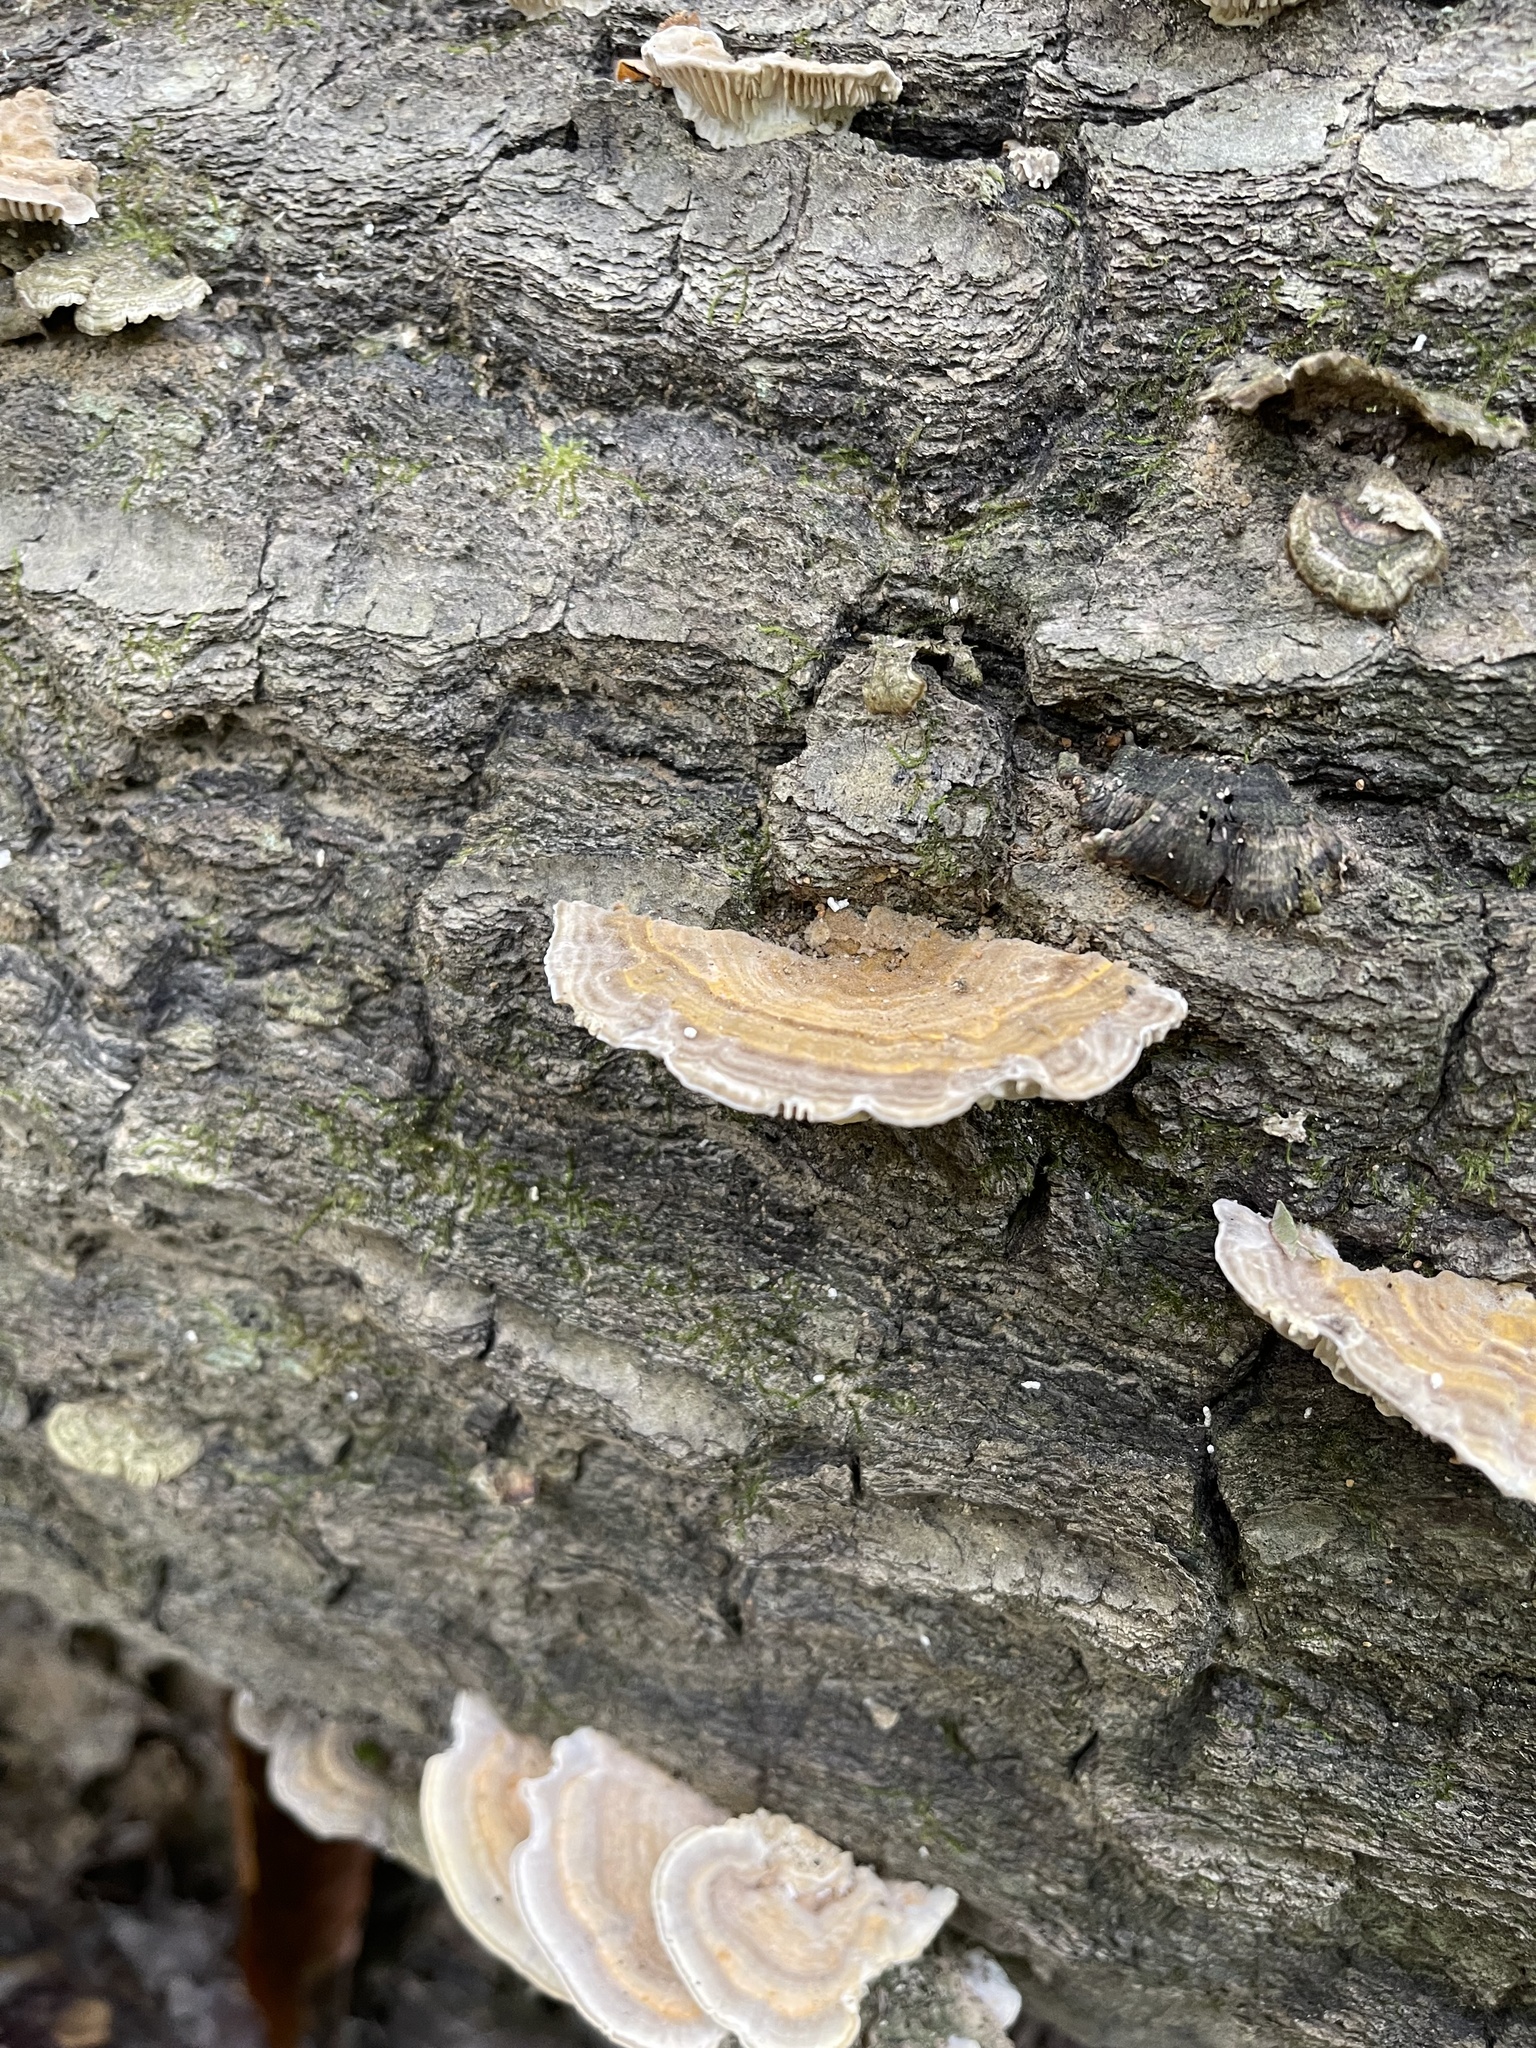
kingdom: Fungi
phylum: Basidiomycota
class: Agaricomycetes
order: Polyporales
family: Polyporaceae
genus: Lenzites
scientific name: Lenzites betulinus
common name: Birch mazegill
